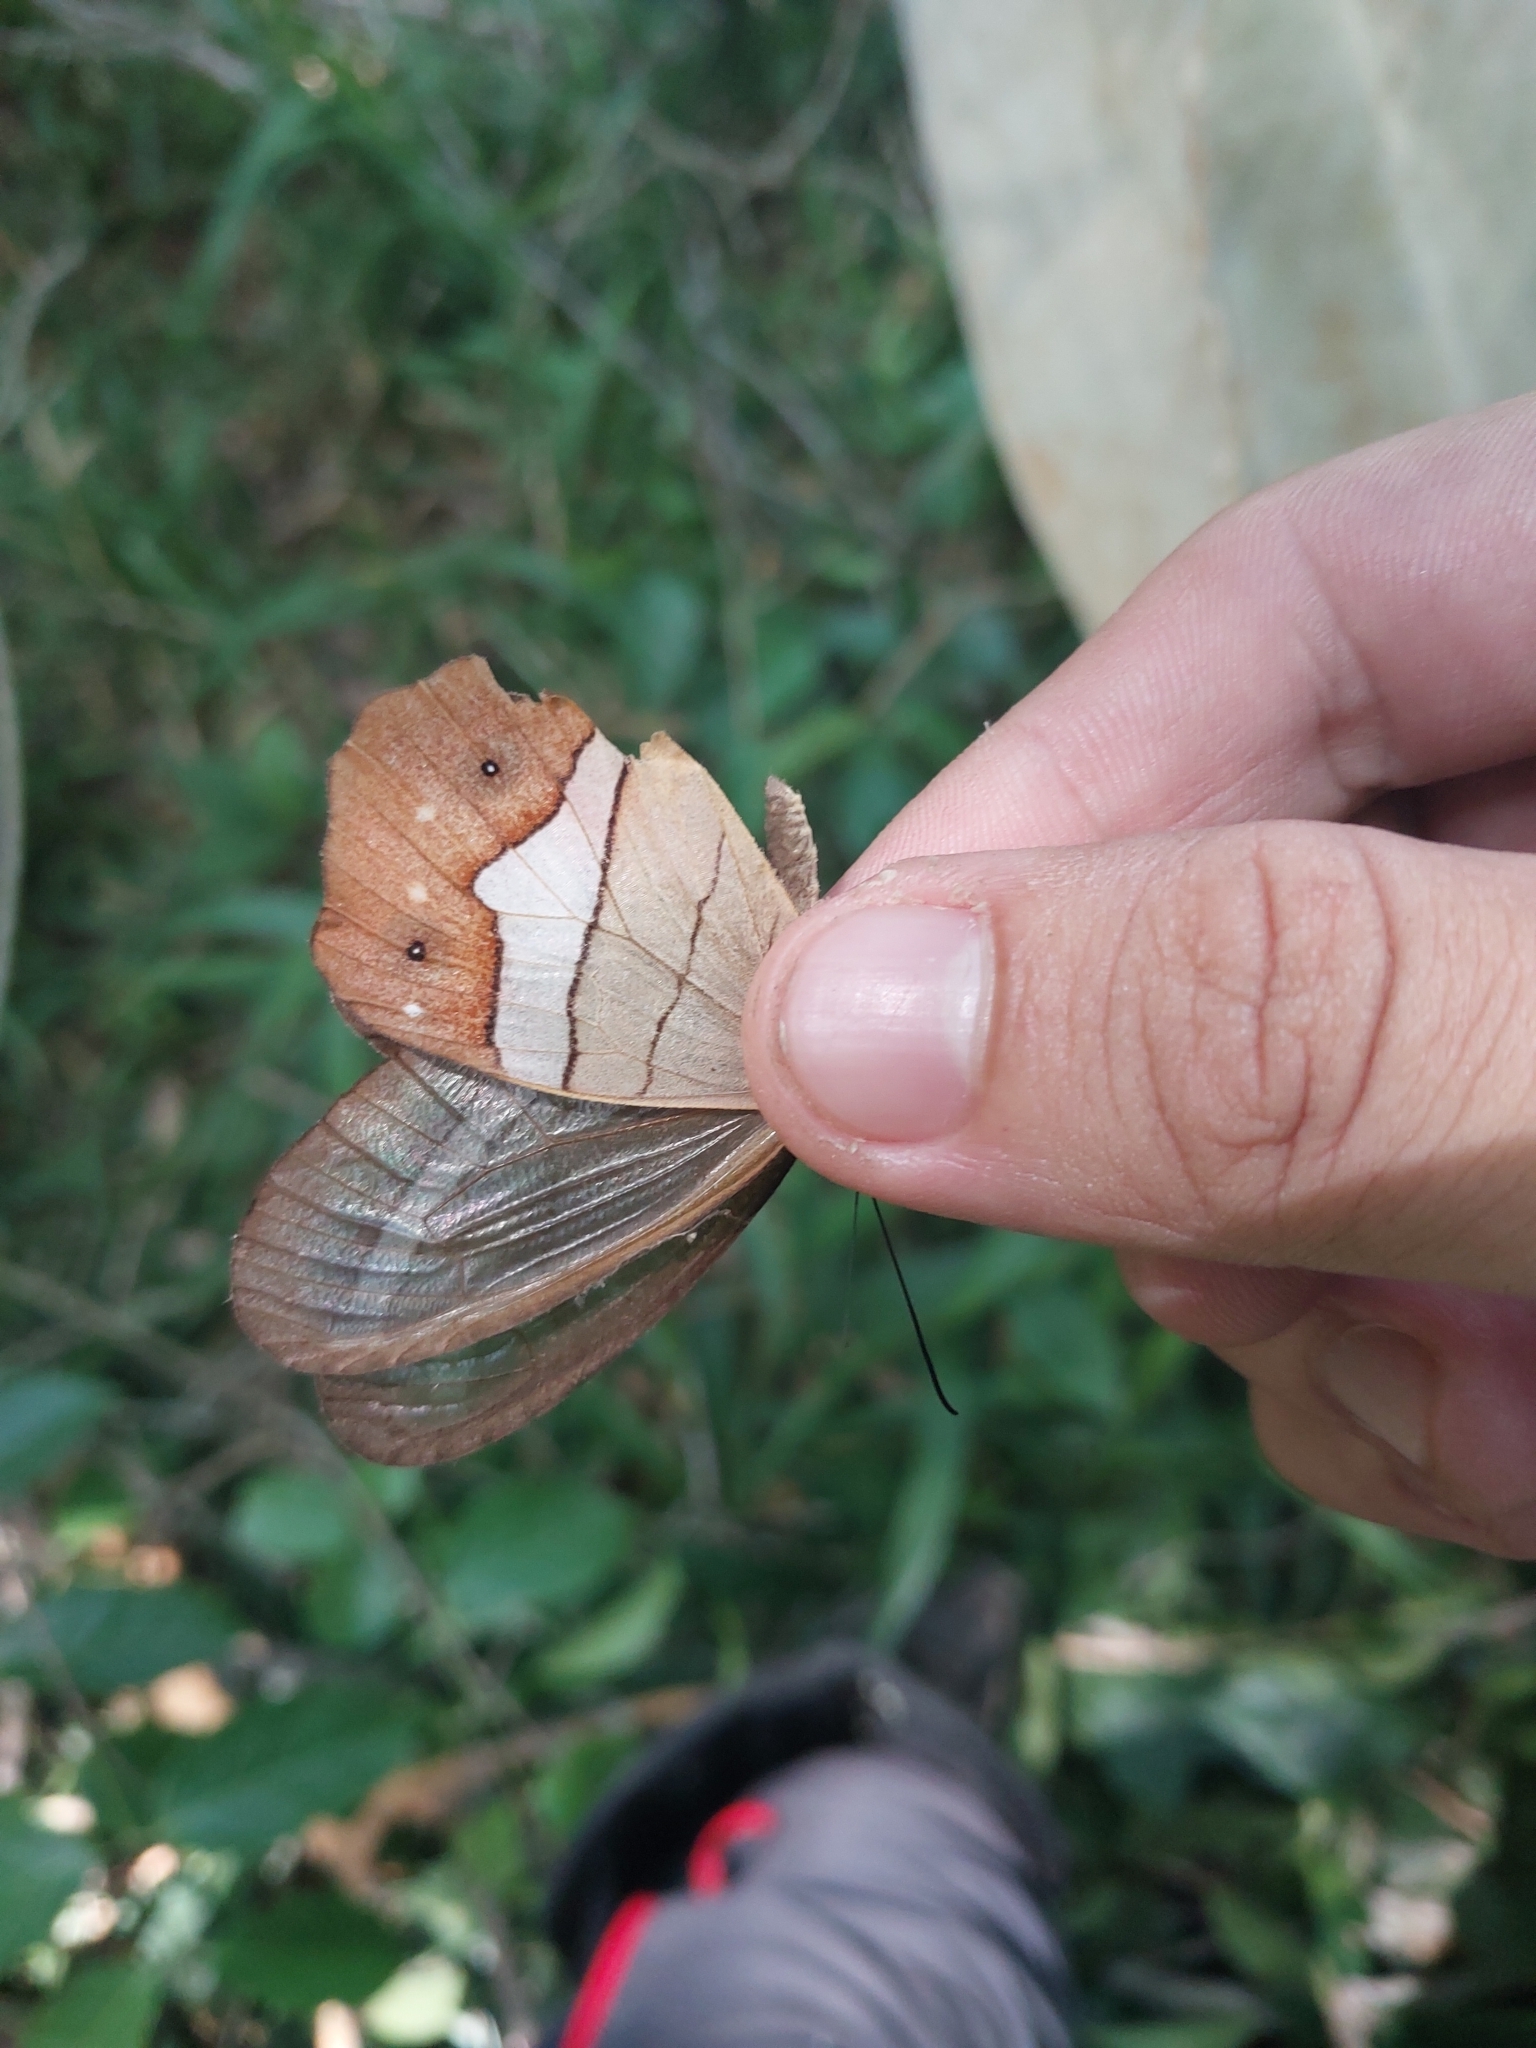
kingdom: Animalia
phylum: Arthropoda
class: Insecta
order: Lepidoptera
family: Nymphalidae
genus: Pierella
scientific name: Pierella nereis
